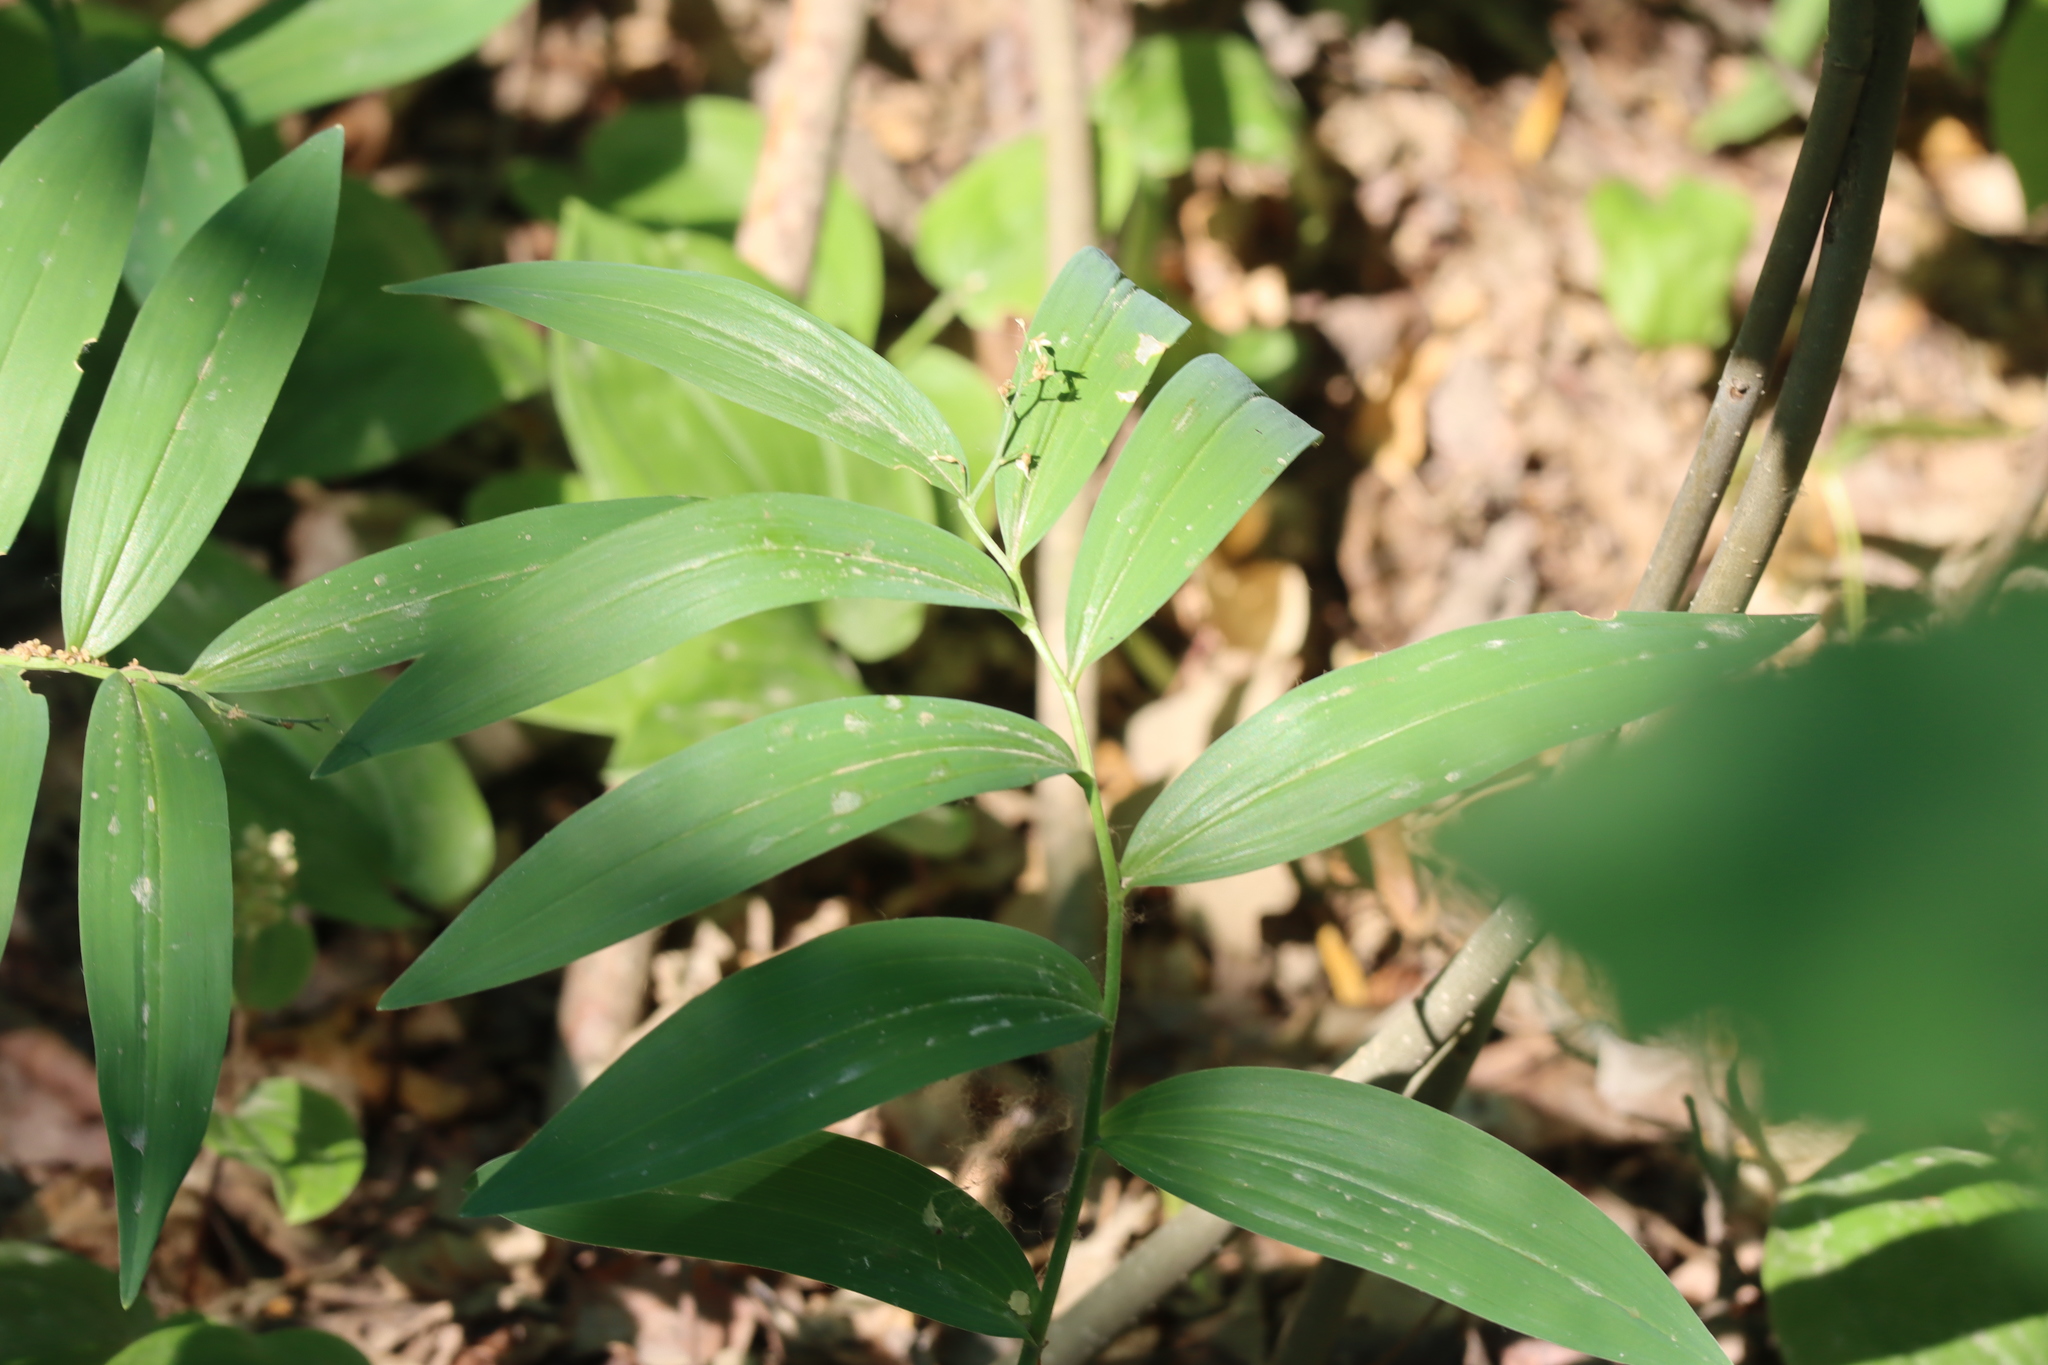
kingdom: Plantae
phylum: Tracheophyta
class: Liliopsida
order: Asparagales
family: Asparagaceae
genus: Maianthemum
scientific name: Maianthemum stellatum
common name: Little false solomon's seal
